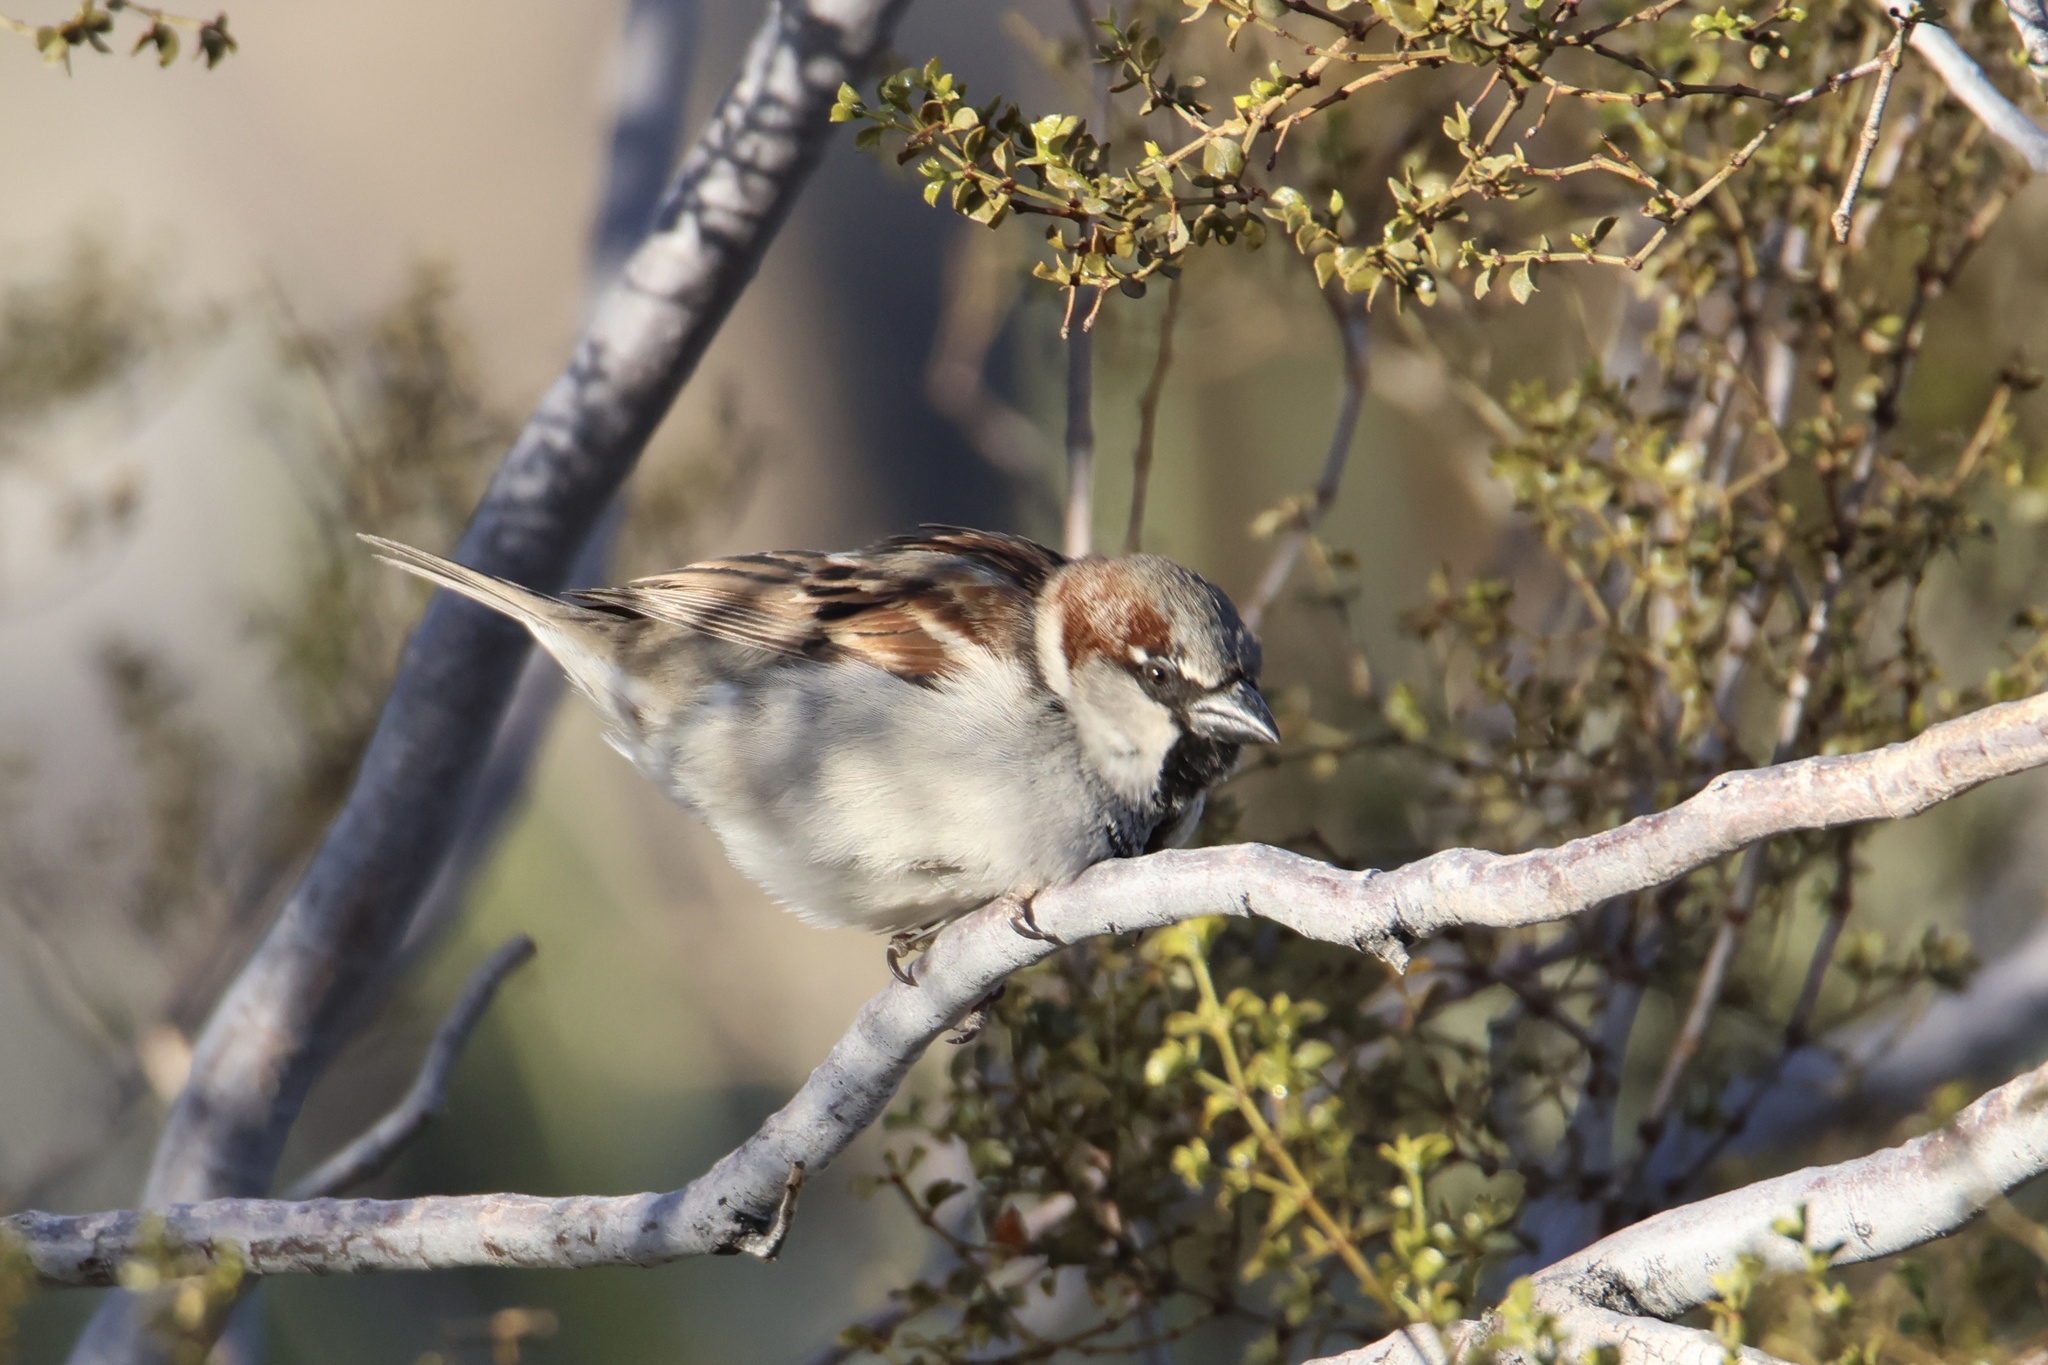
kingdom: Animalia
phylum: Chordata
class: Aves
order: Passeriformes
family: Passeridae
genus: Passer
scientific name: Passer domesticus
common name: House sparrow
